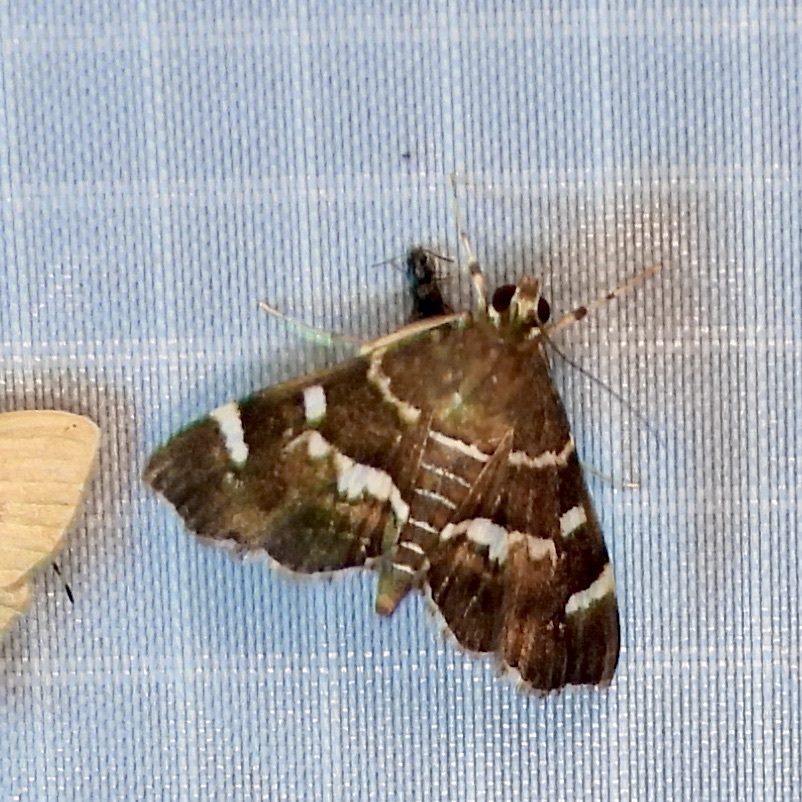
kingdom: Animalia
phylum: Arthropoda
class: Insecta
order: Lepidoptera
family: Crambidae
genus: Hymenia
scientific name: Hymenia perspectalis
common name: Spotted beet webworm
